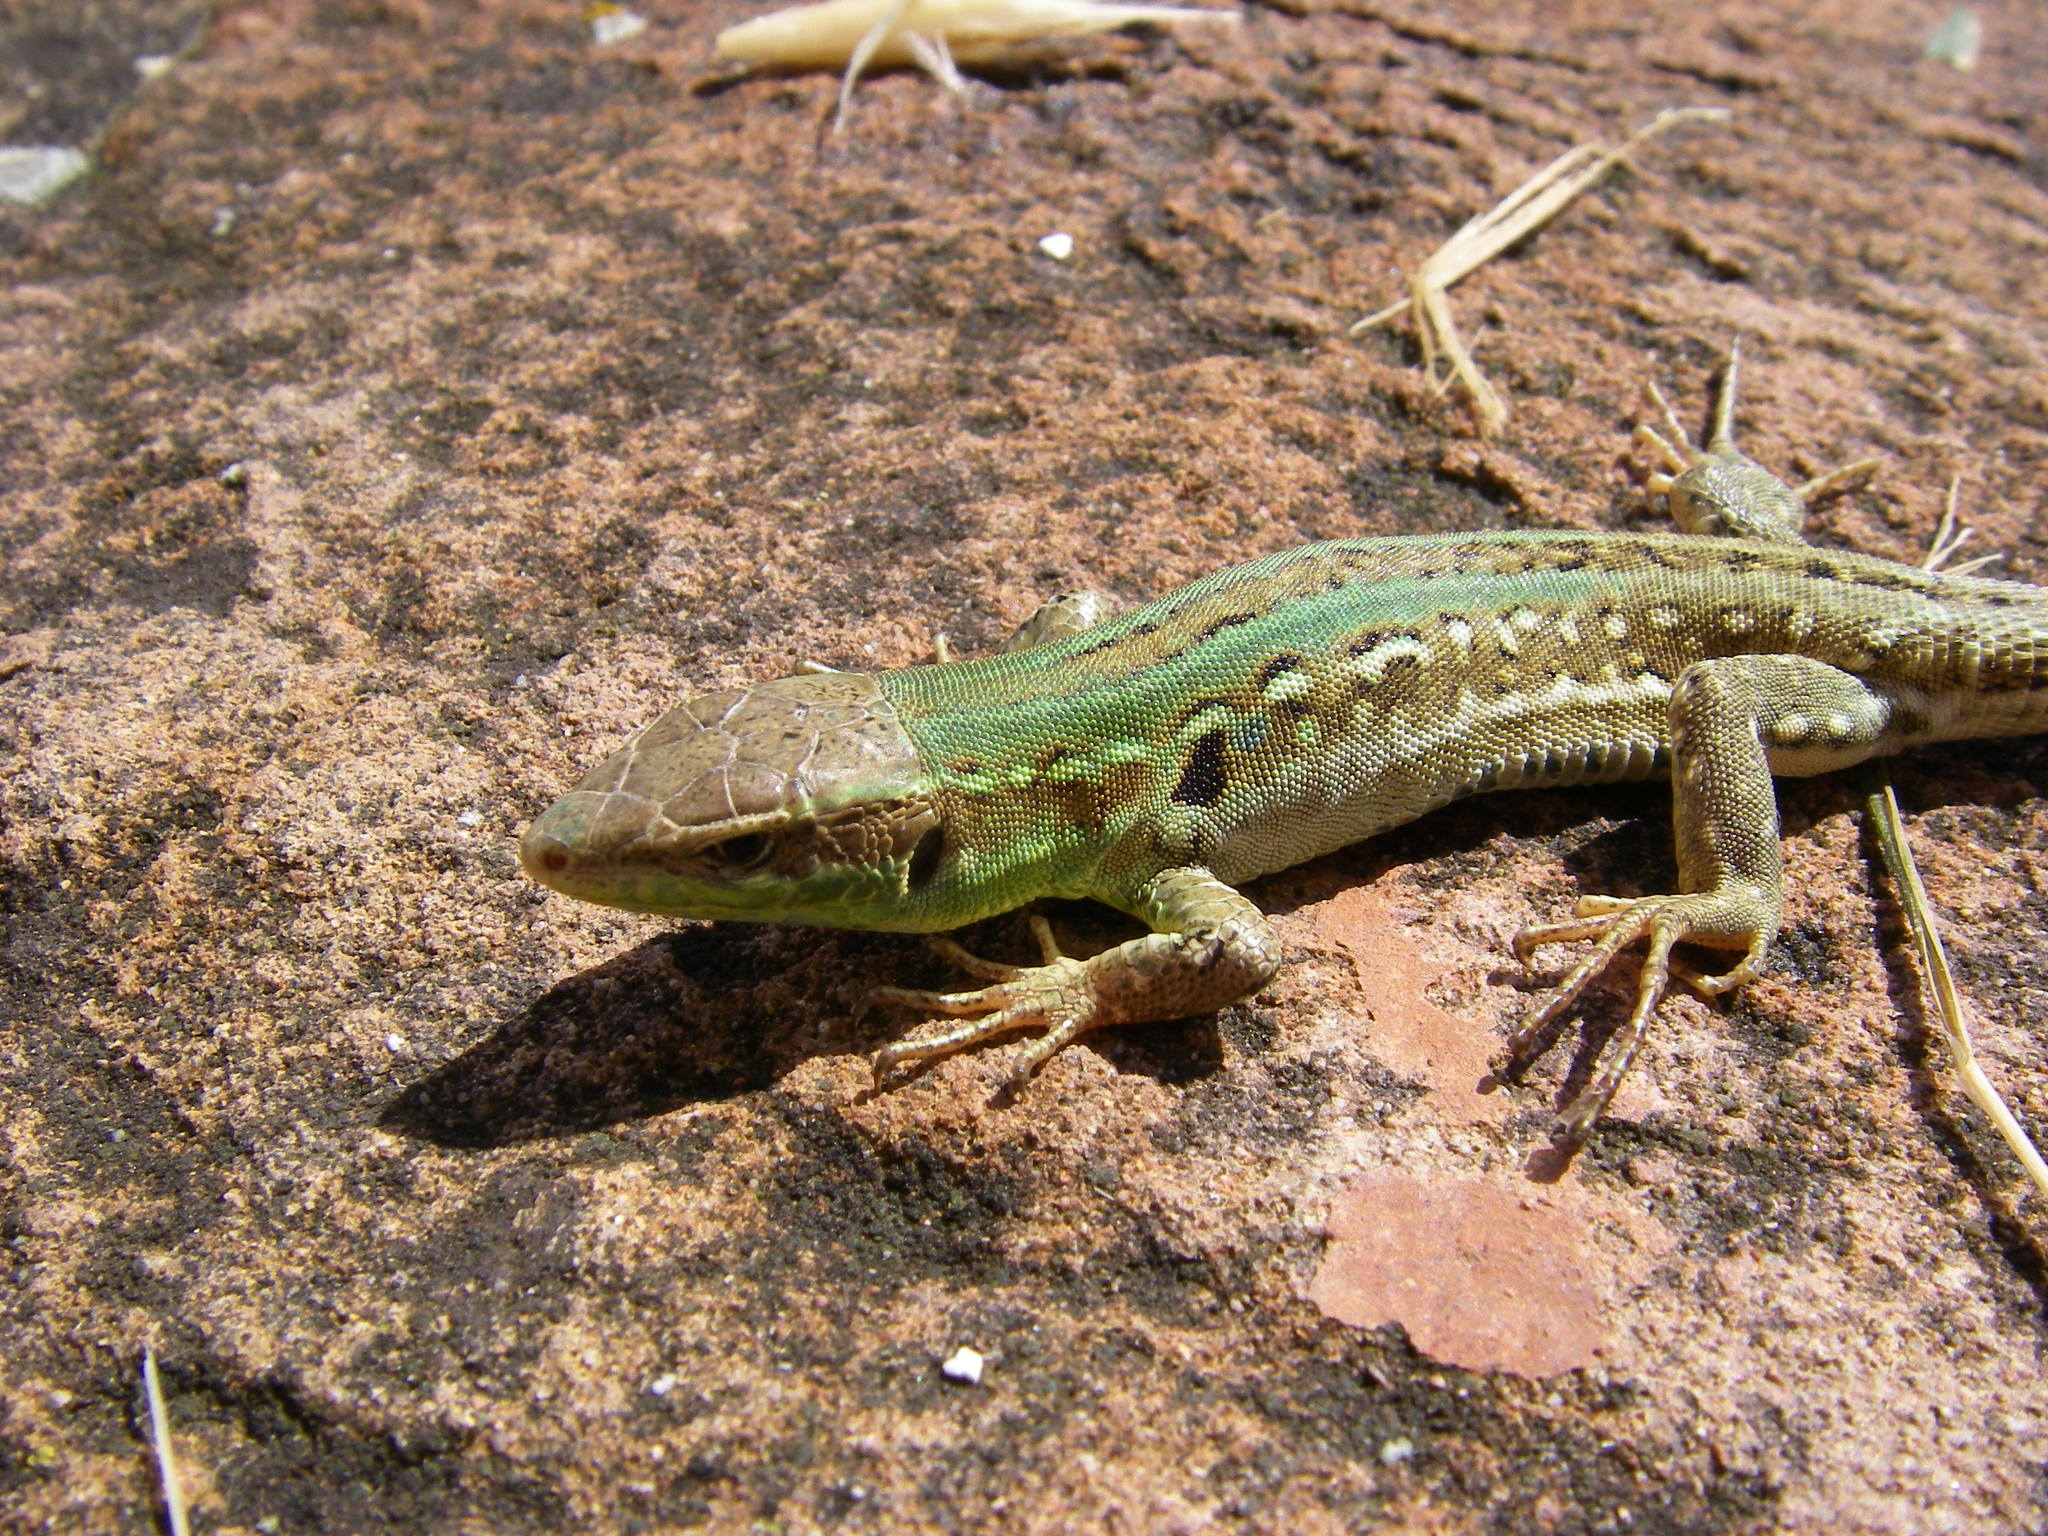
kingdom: Animalia
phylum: Chordata
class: Squamata
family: Lacertidae
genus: Podarcis
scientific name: Podarcis siculus
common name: Italian wall lizard
